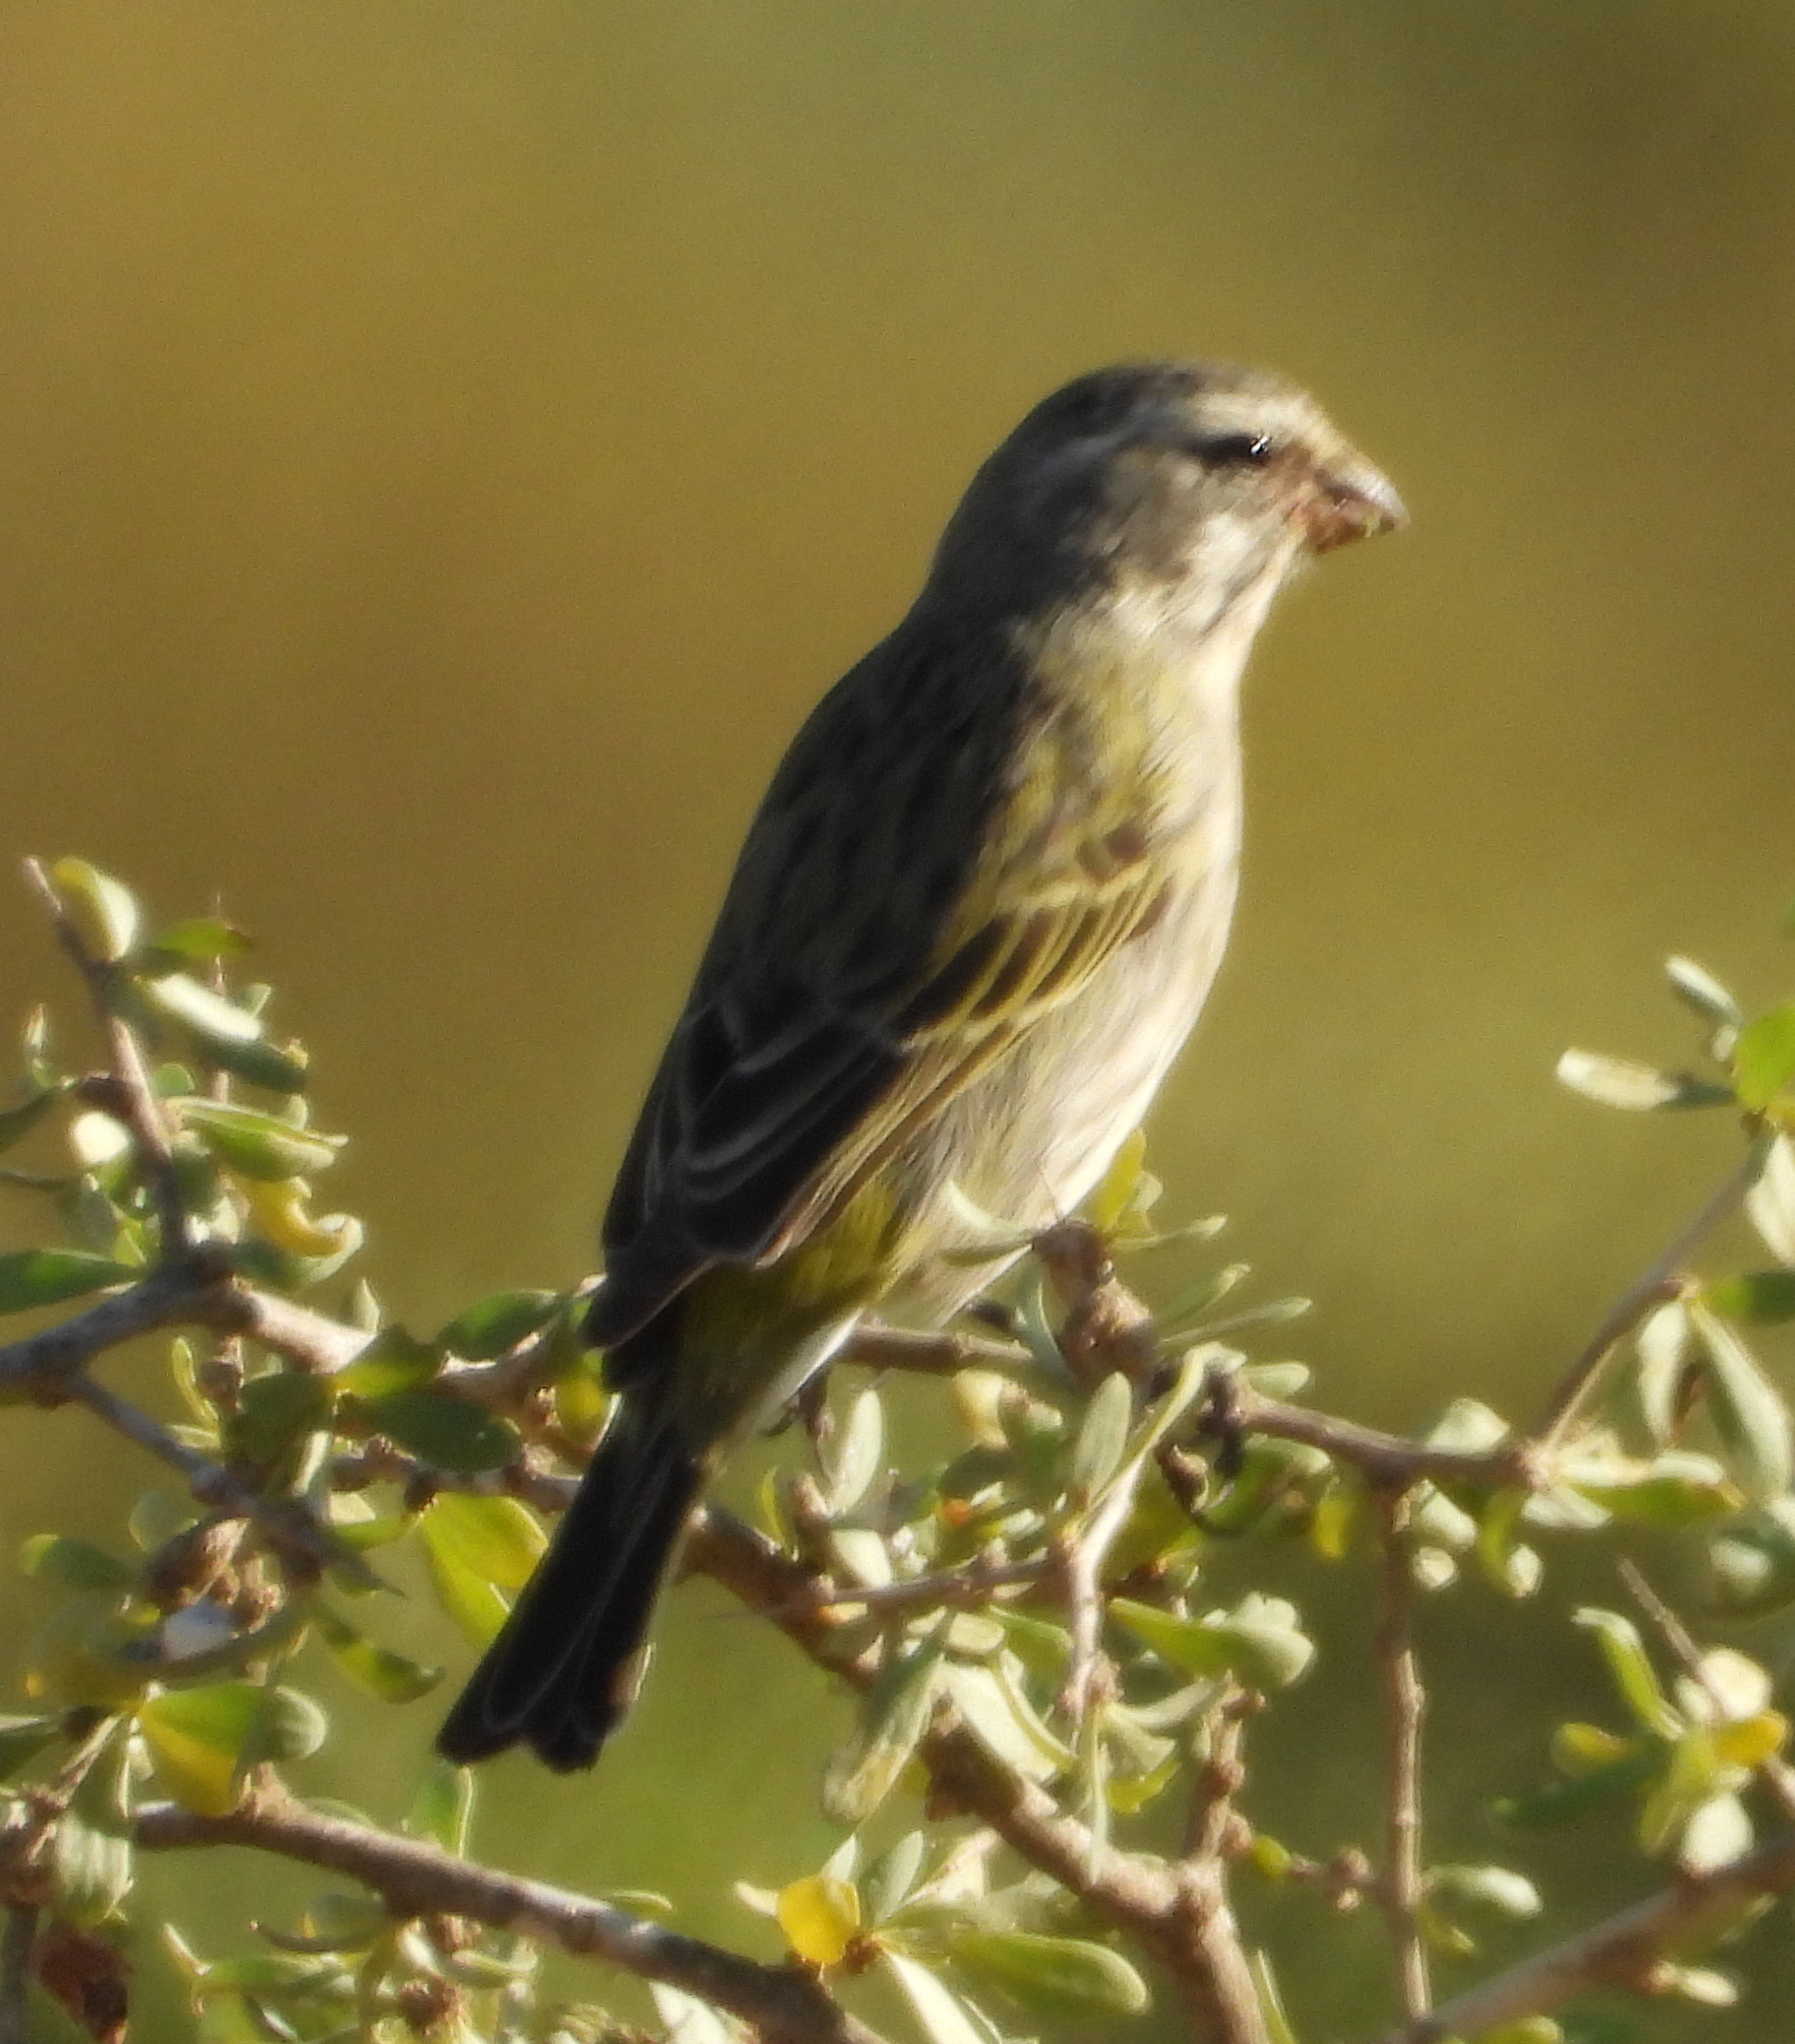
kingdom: Animalia
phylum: Chordata
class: Aves
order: Passeriformes
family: Fringillidae
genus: Crithagra
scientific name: Crithagra flaviventris
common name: Yellow canary
